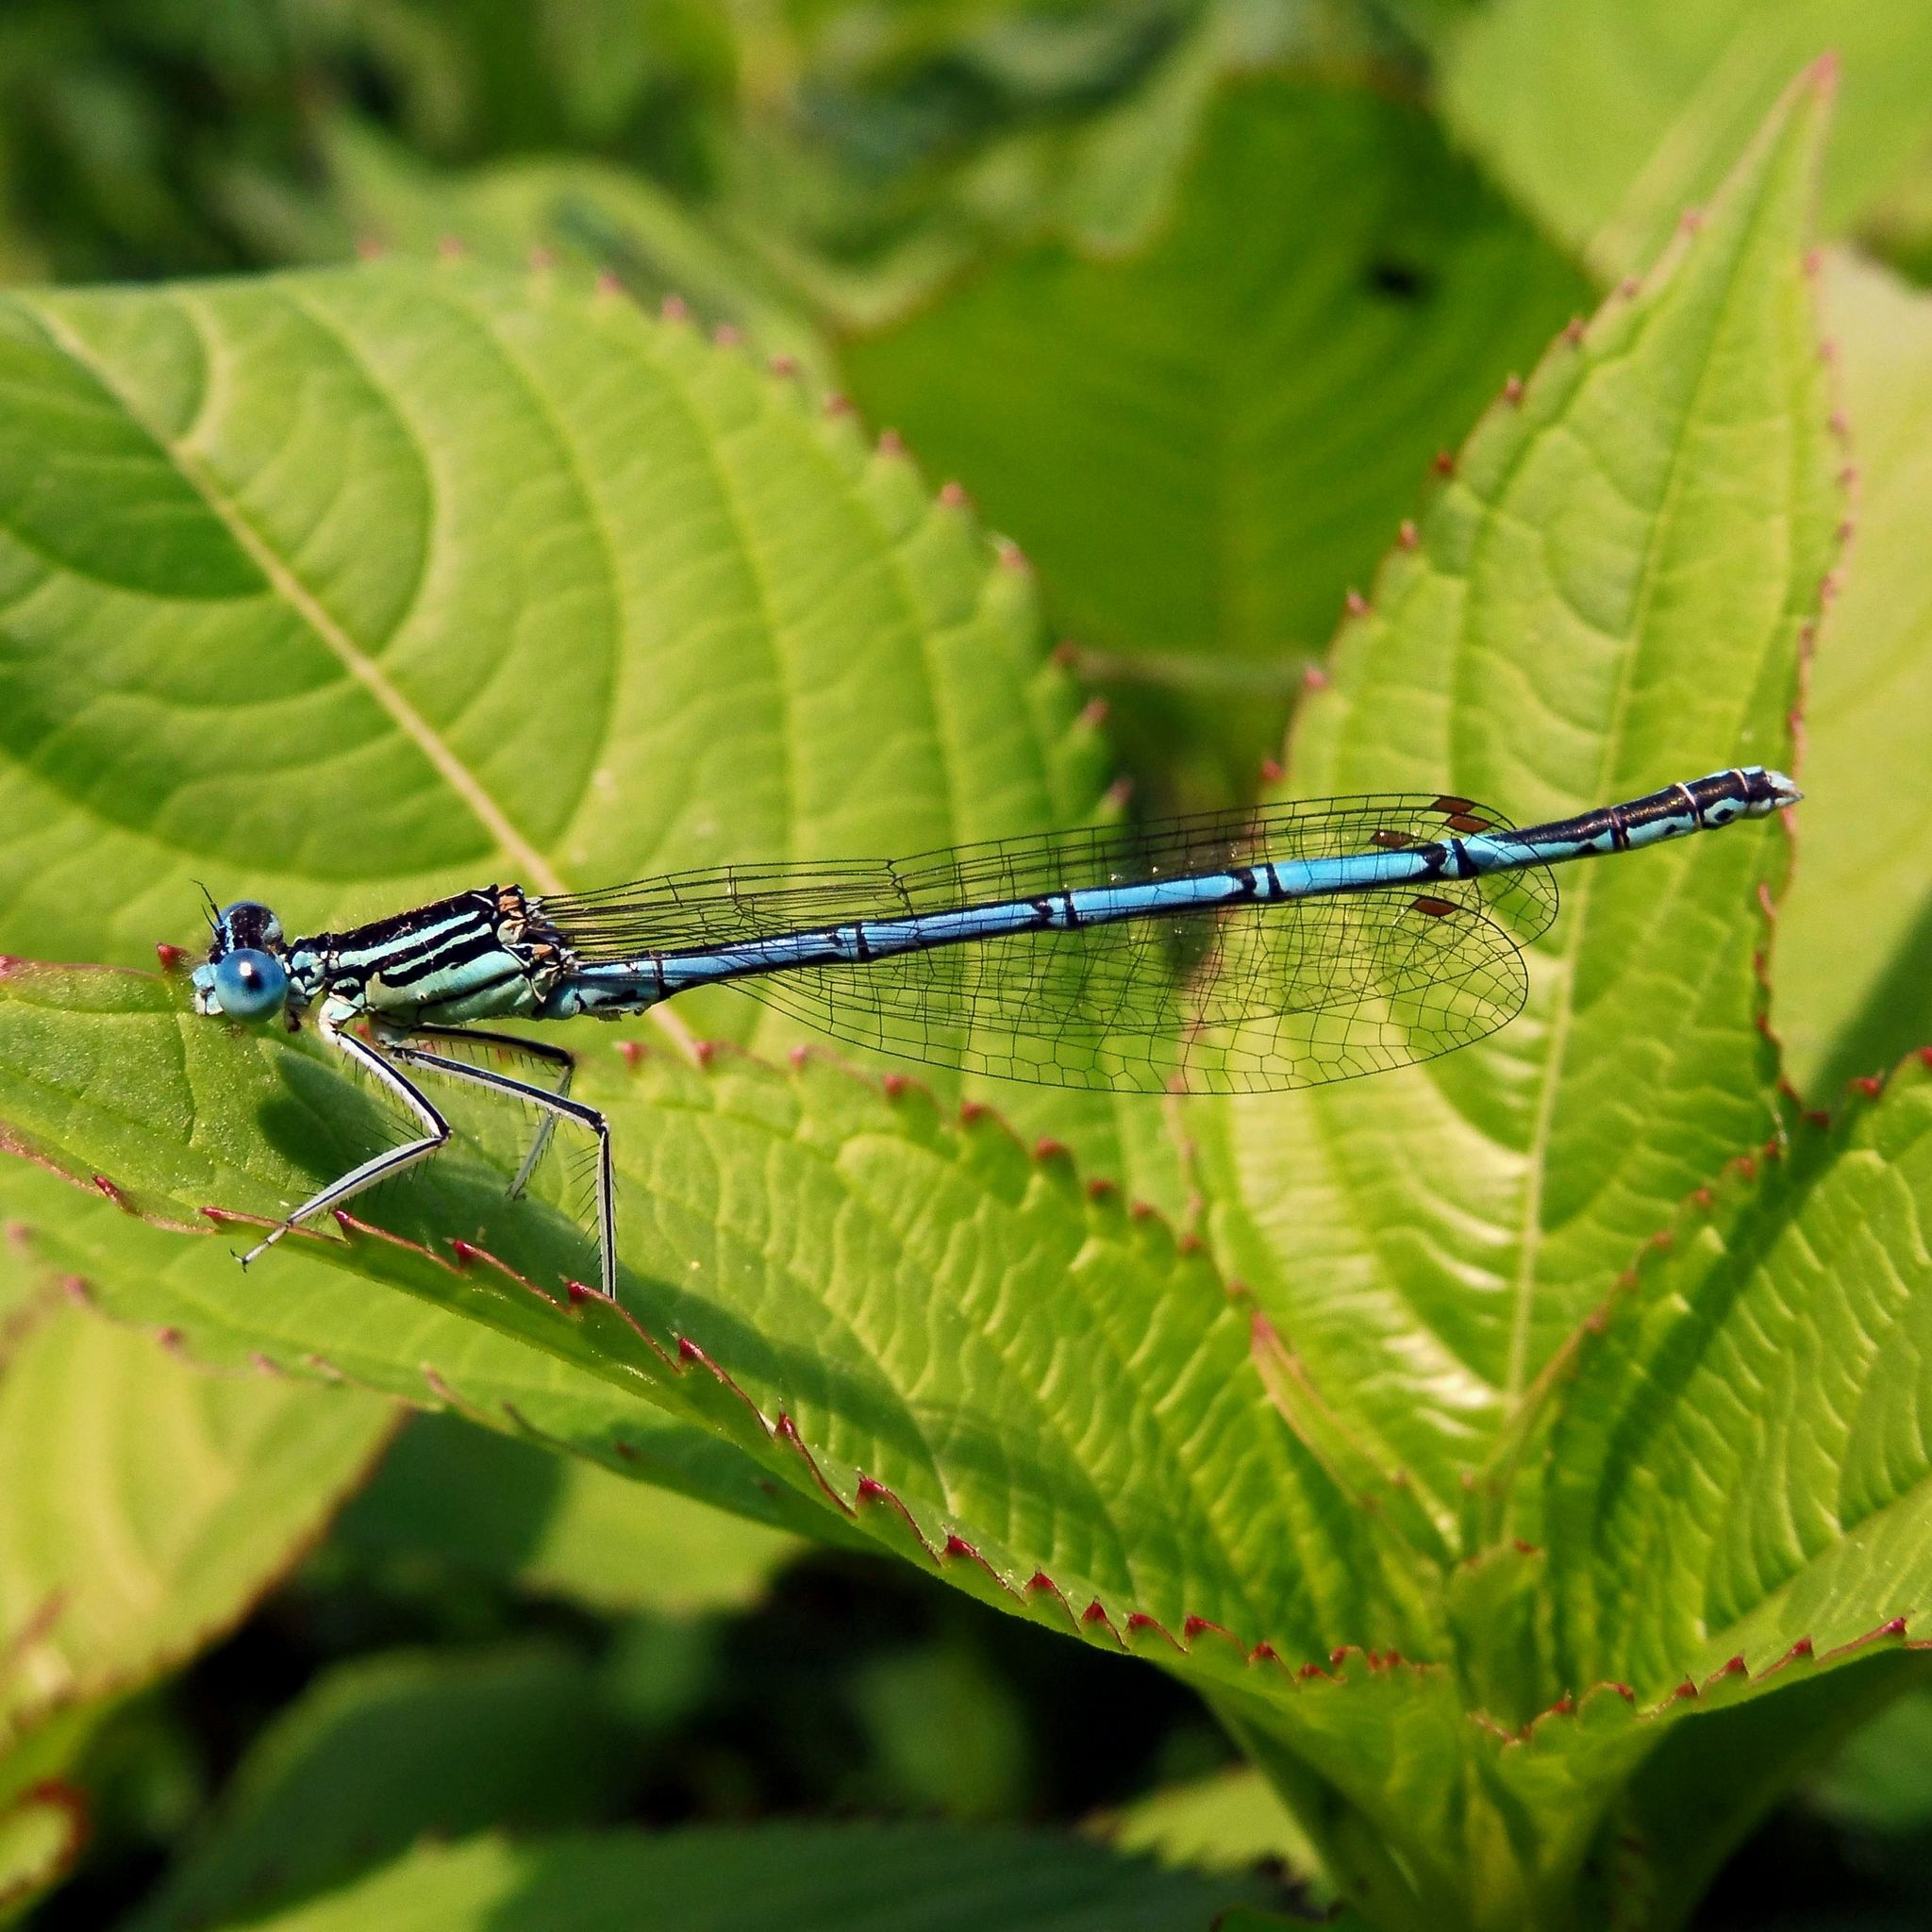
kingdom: Animalia
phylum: Arthropoda
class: Insecta
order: Odonata
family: Platycnemididae
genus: Platycnemis
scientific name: Platycnemis pennipes
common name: White-legged damselfly
